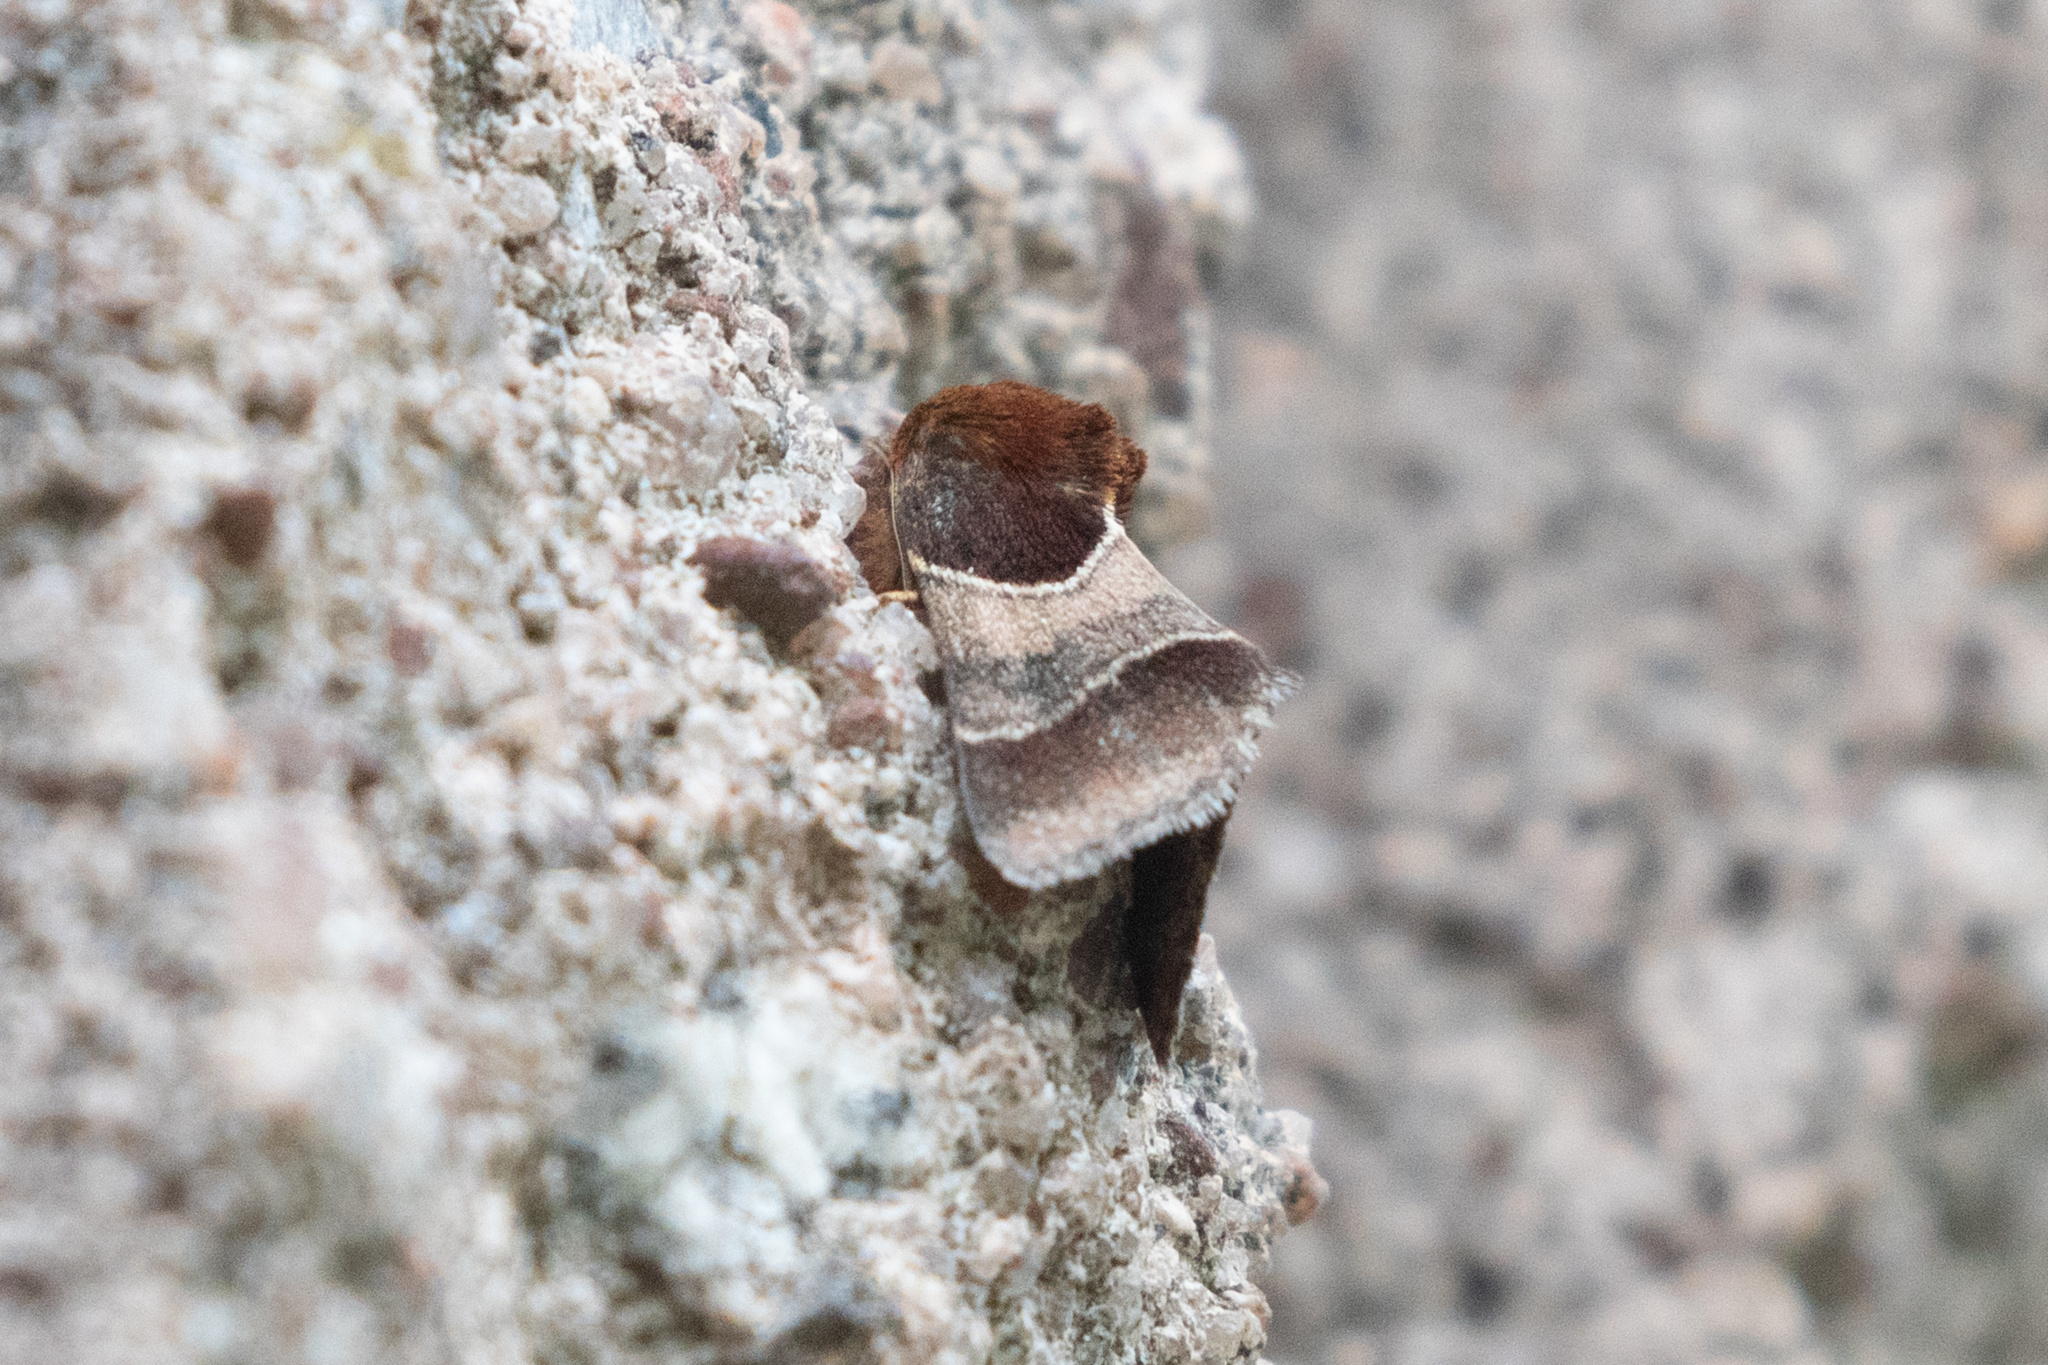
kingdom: Animalia
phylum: Arthropoda
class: Insecta
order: Lepidoptera
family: Noctuidae
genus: Schinia
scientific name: Schinia arcigera
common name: Arcigera flower moth
